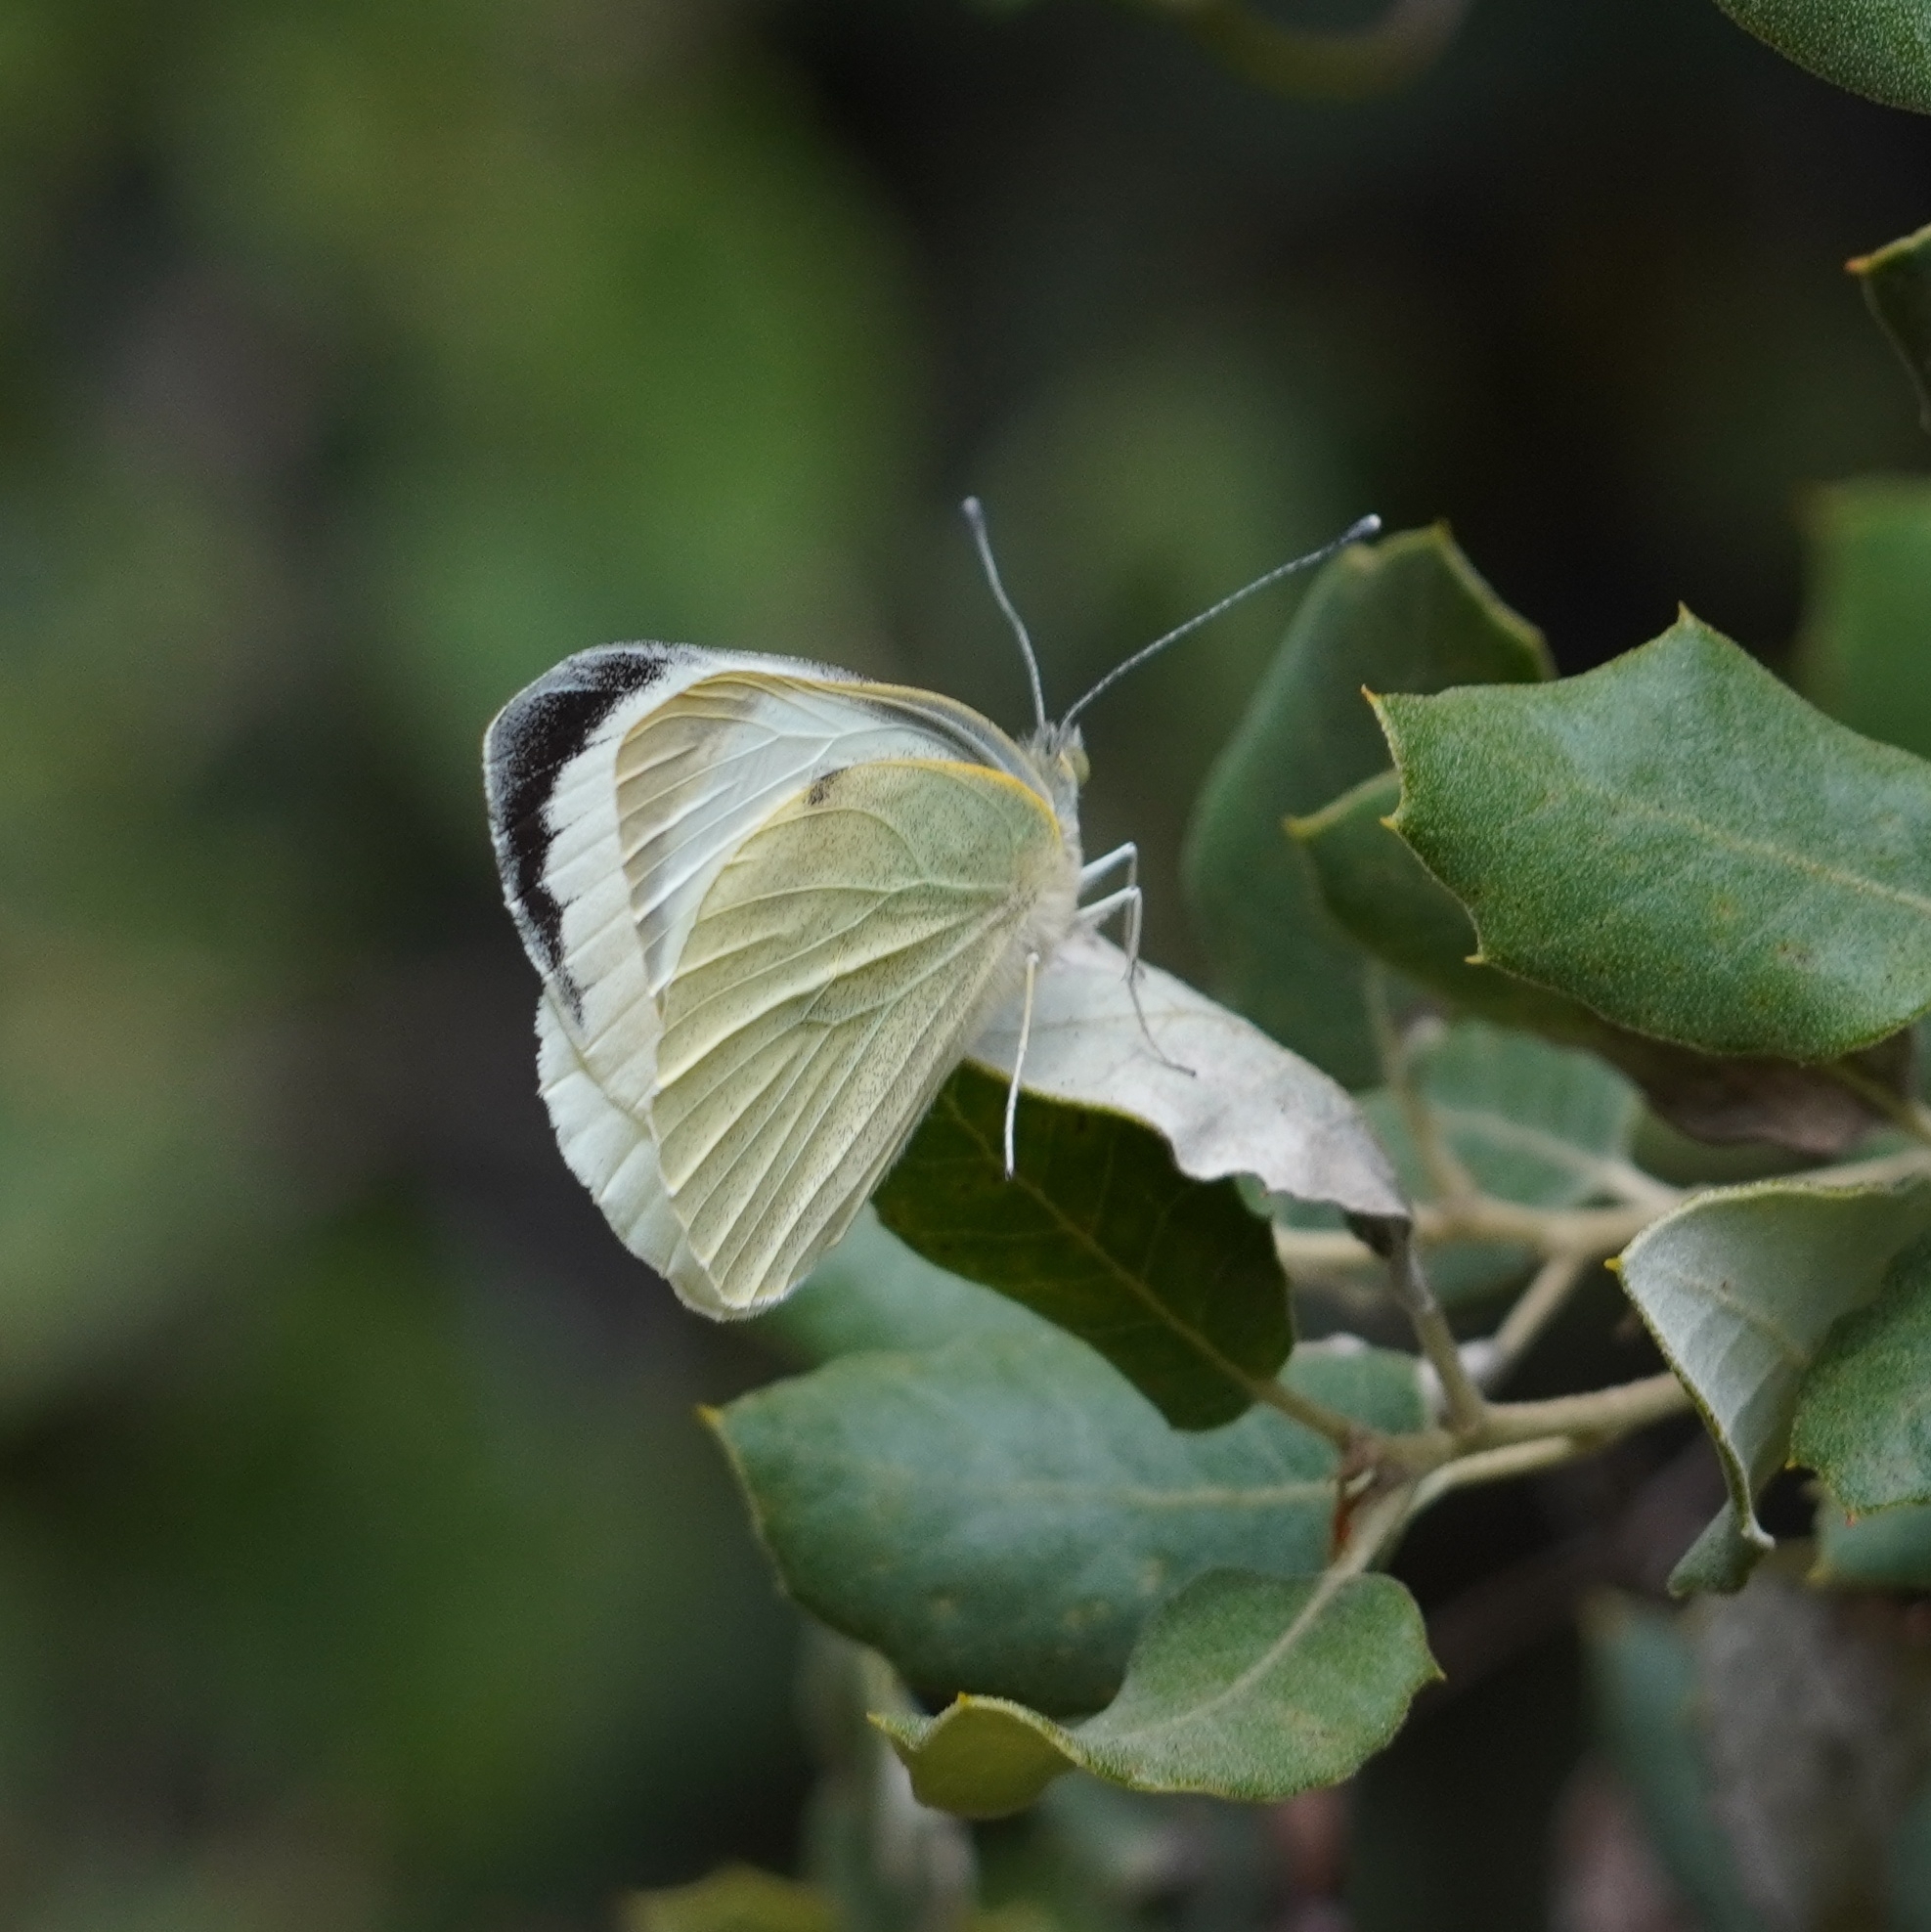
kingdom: Animalia
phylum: Arthropoda
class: Insecta
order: Lepidoptera
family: Pieridae
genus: Pieris
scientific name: Pieris brassicae
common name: Large white
